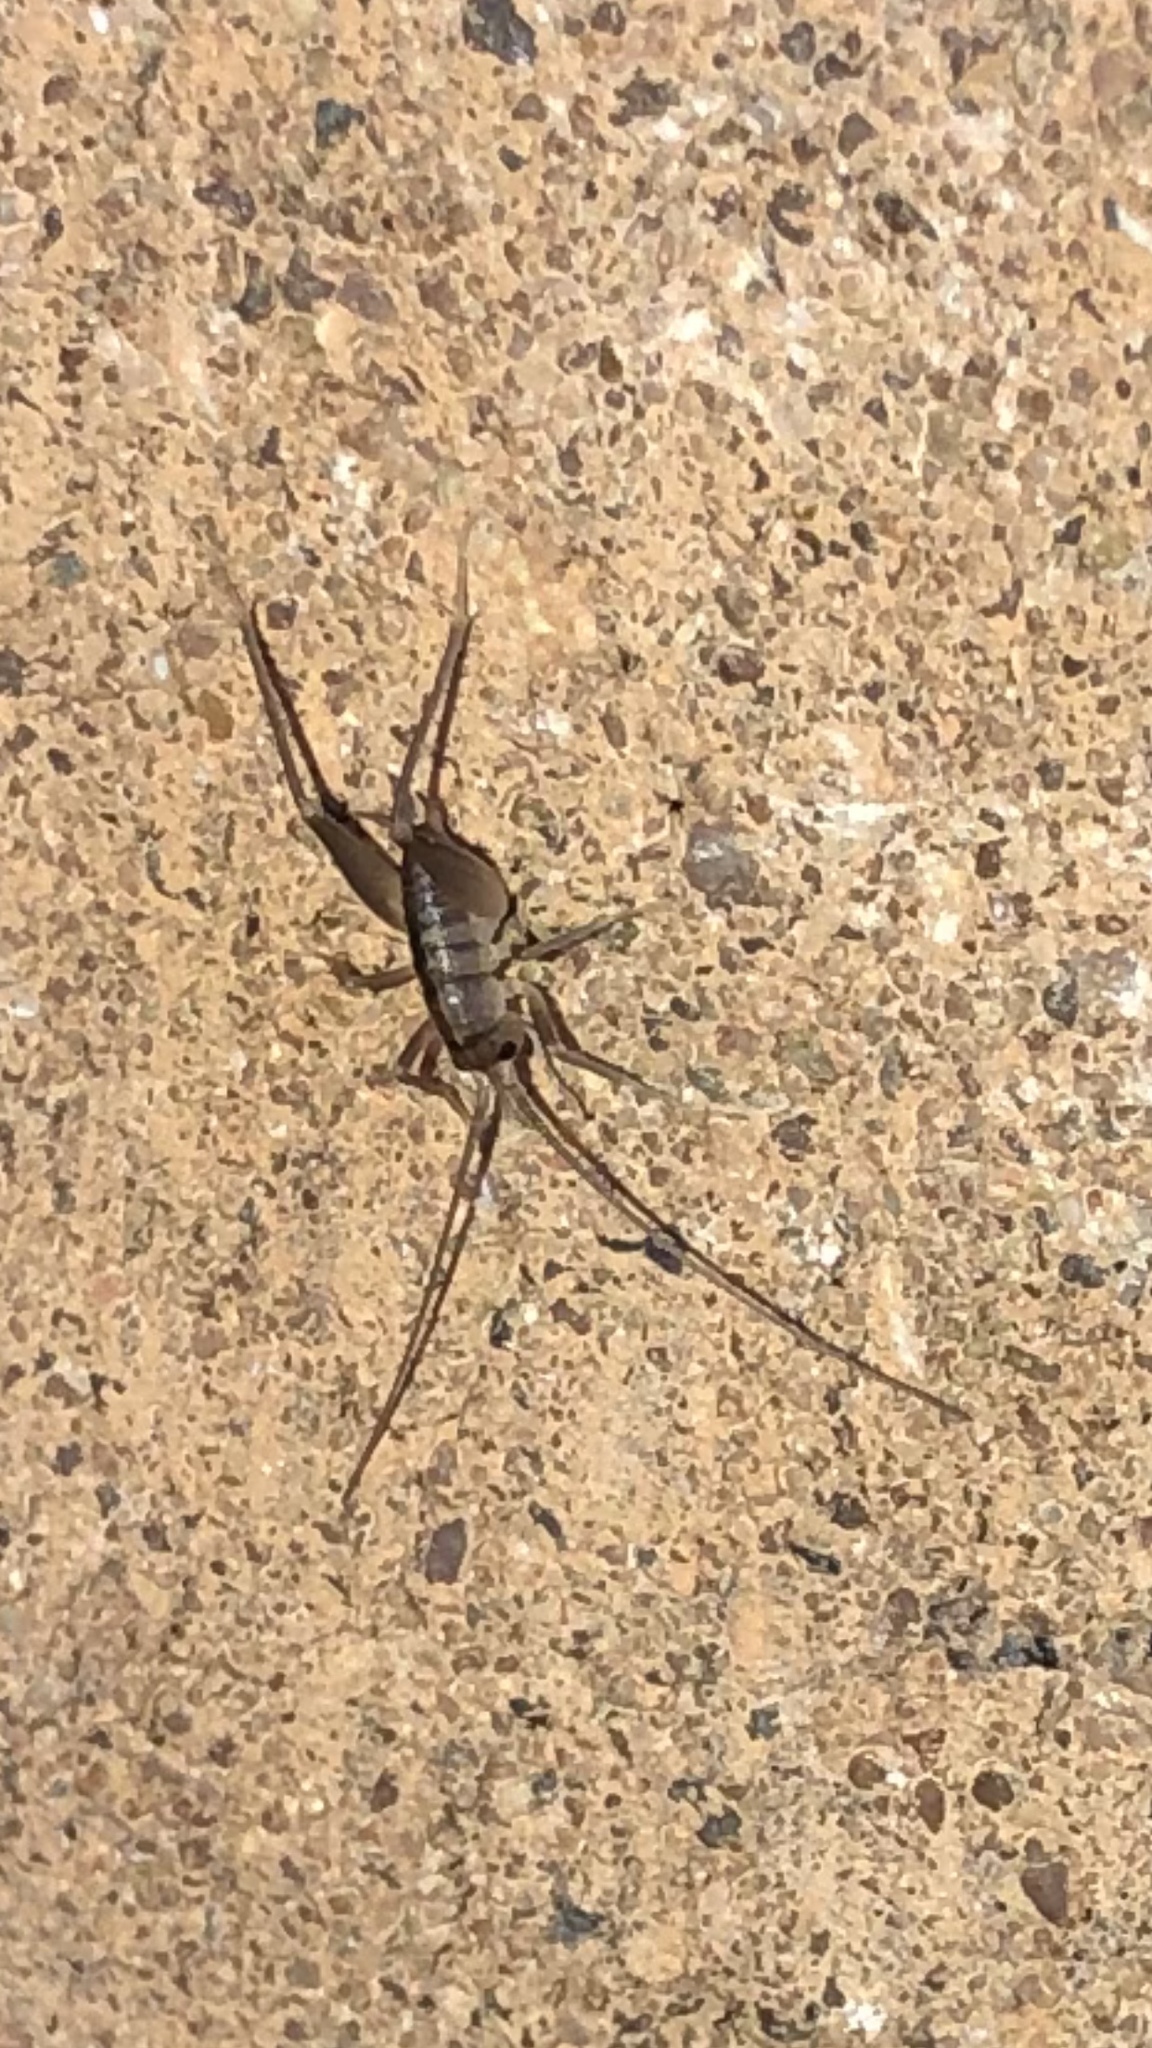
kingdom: Animalia
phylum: Arthropoda
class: Insecta
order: Orthoptera
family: Rhaphidophoridae
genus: Tachycines
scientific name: Tachycines asynamorus
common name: Greenhouse camel cricket
